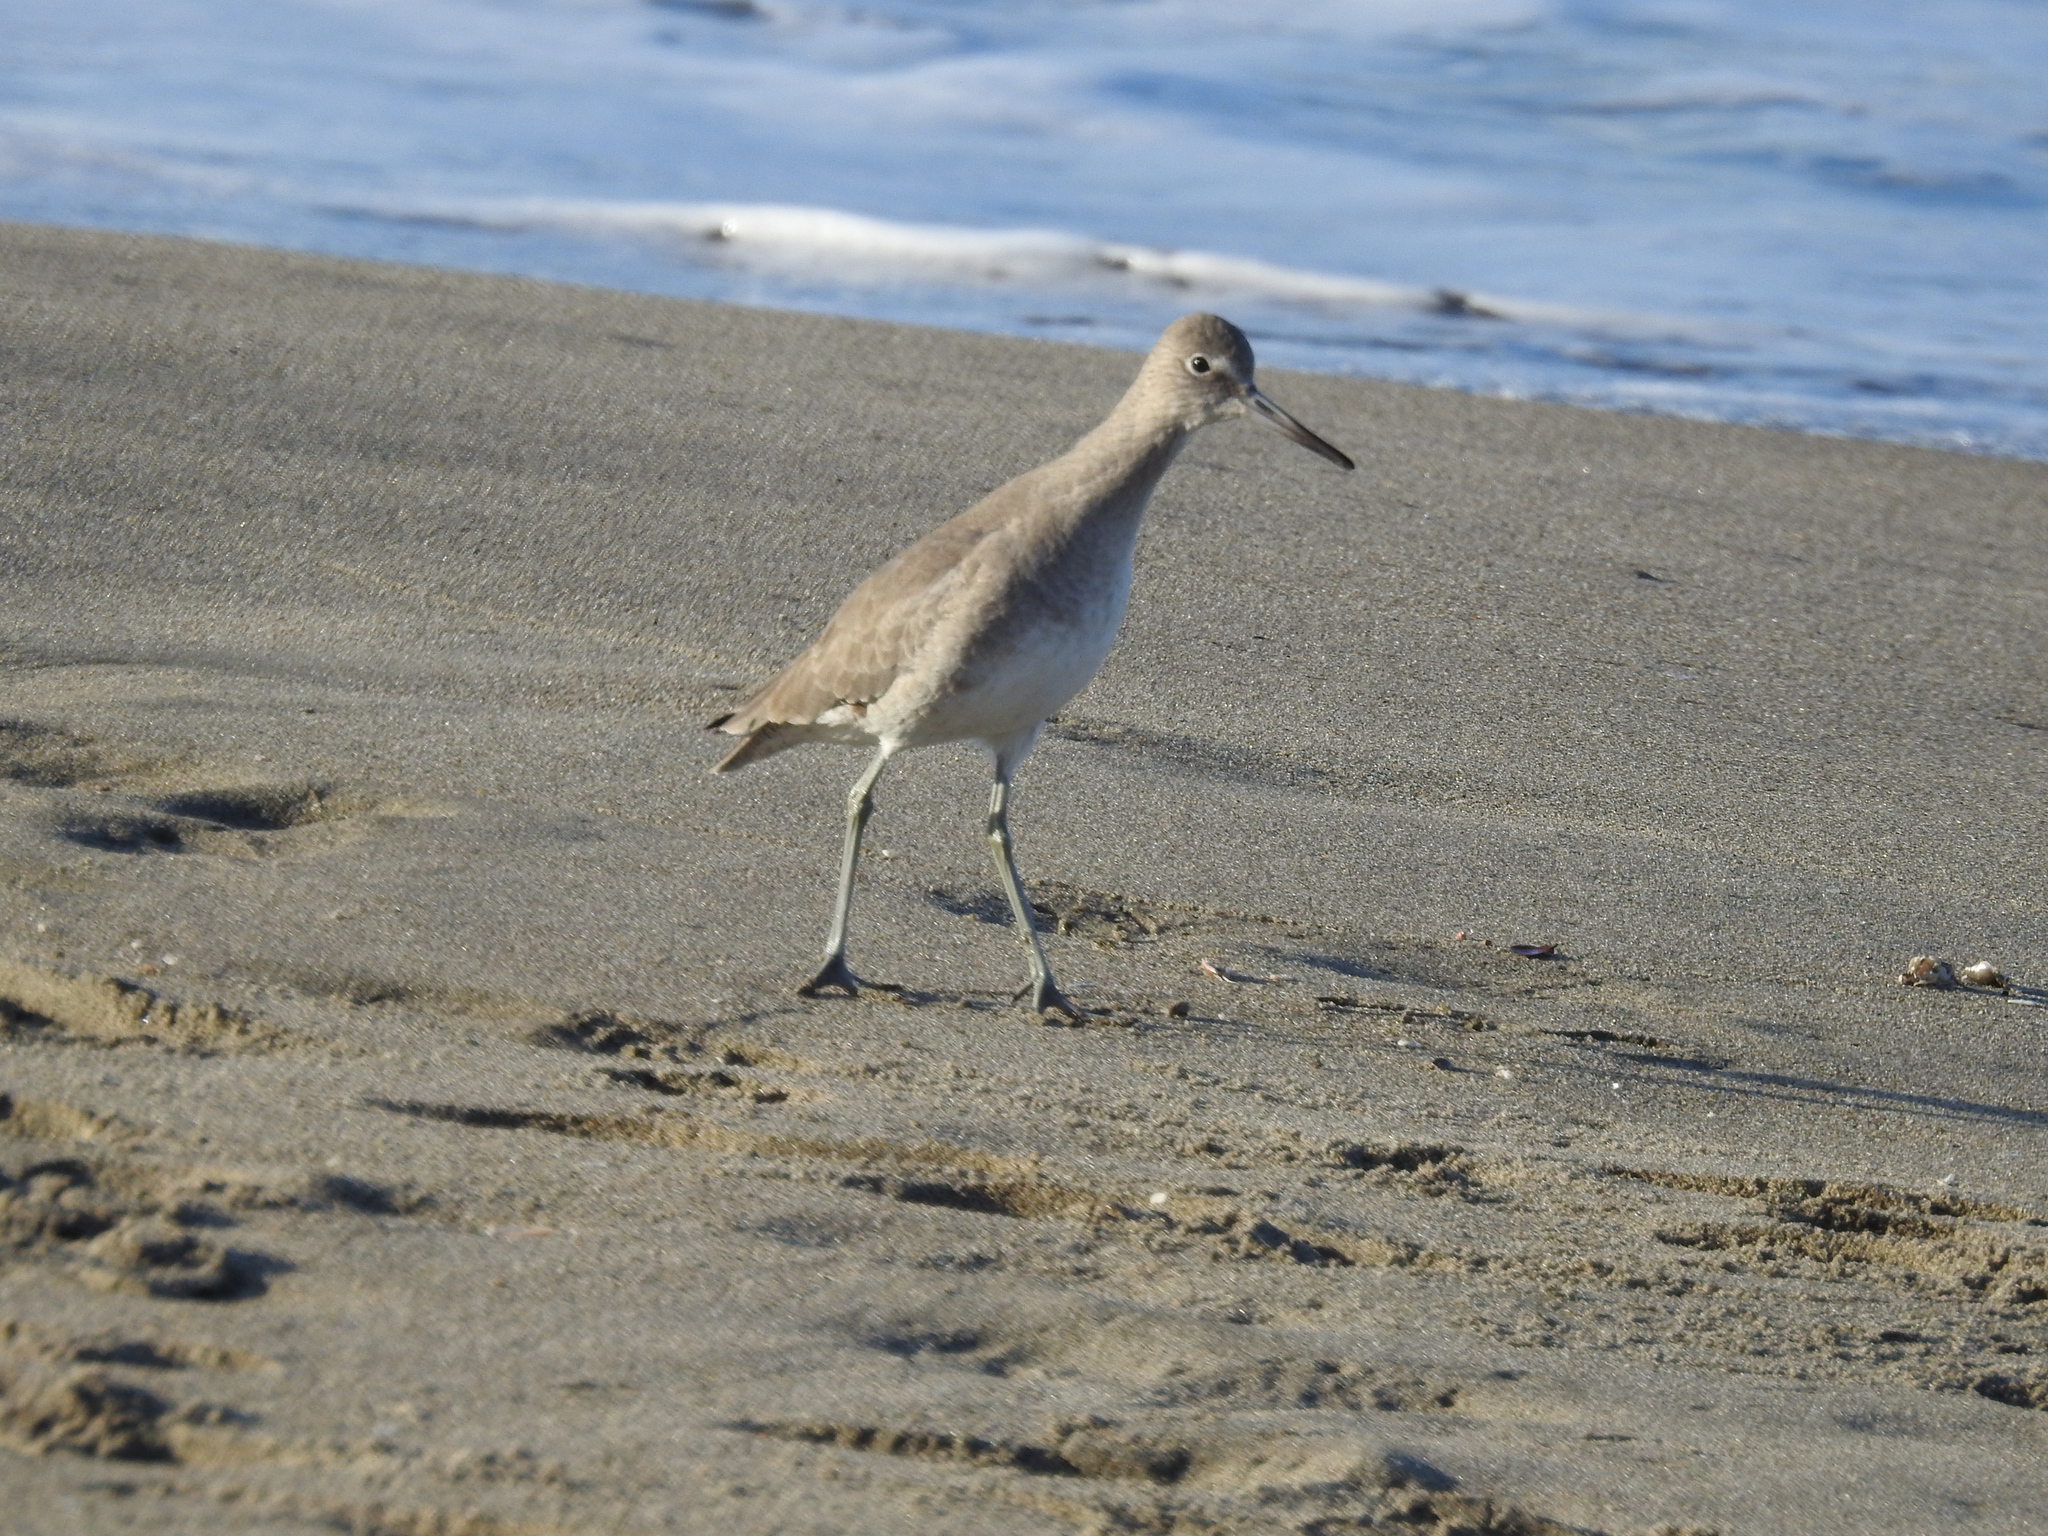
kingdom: Animalia
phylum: Chordata
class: Aves
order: Charadriiformes
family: Scolopacidae
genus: Tringa
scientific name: Tringa semipalmata
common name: Willet
